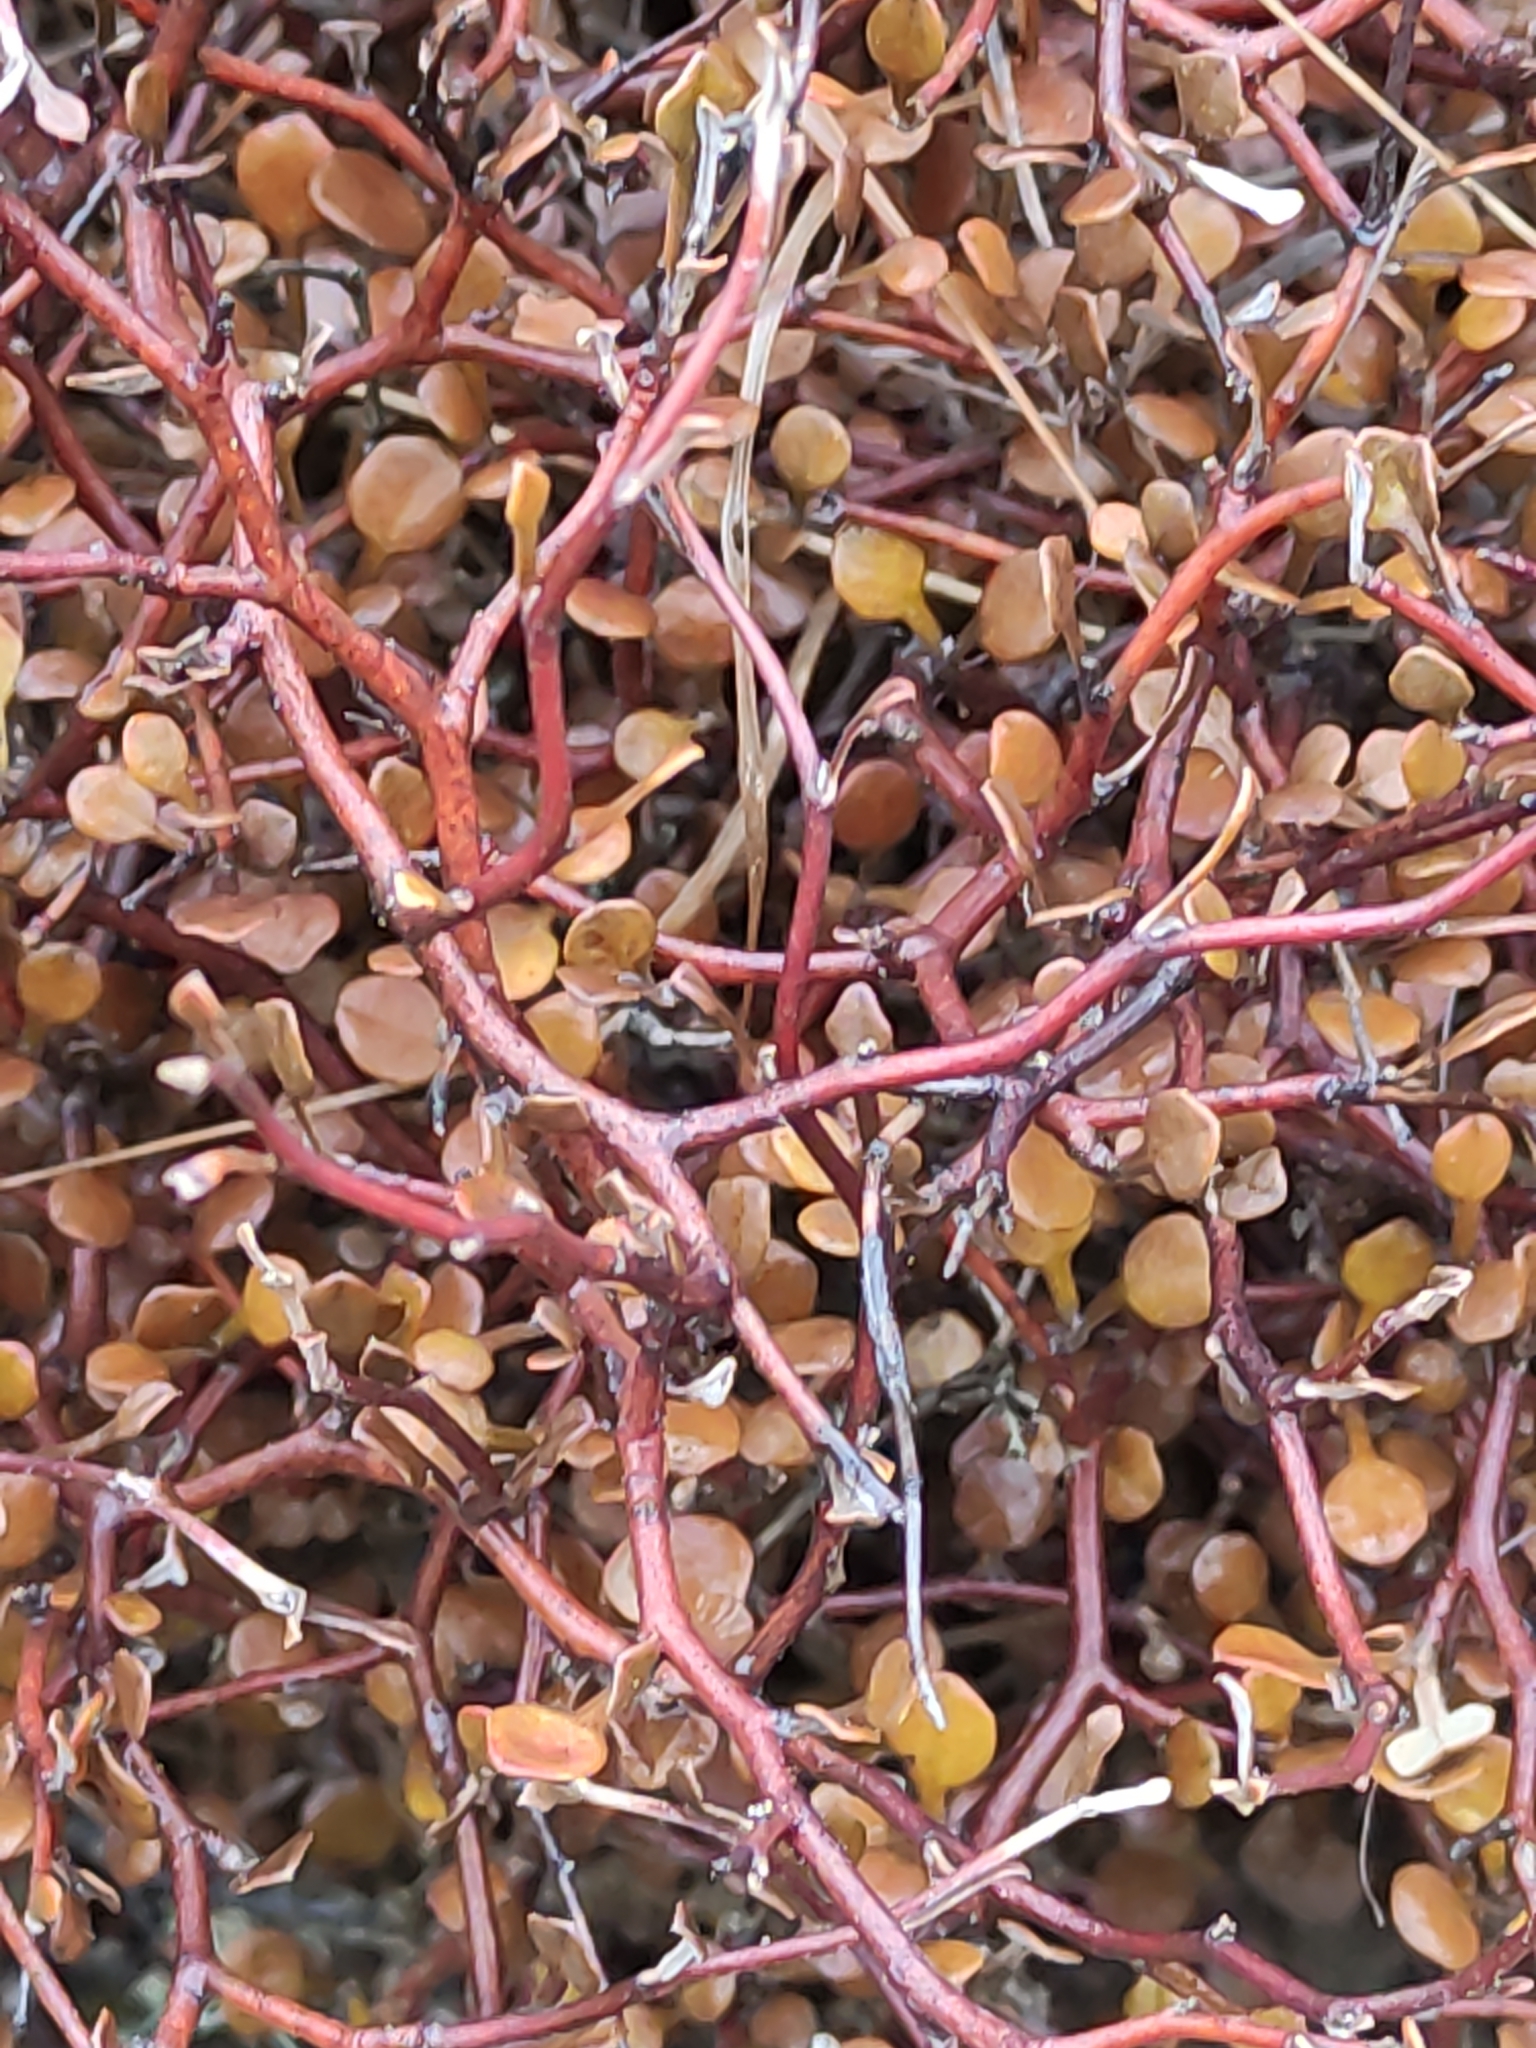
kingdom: Plantae
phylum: Tracheophyta
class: Magnoliopsida
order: Asterales
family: Argophyllaceae
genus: Corokia
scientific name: Corokia cotoneaster
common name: Wire nettingbush
